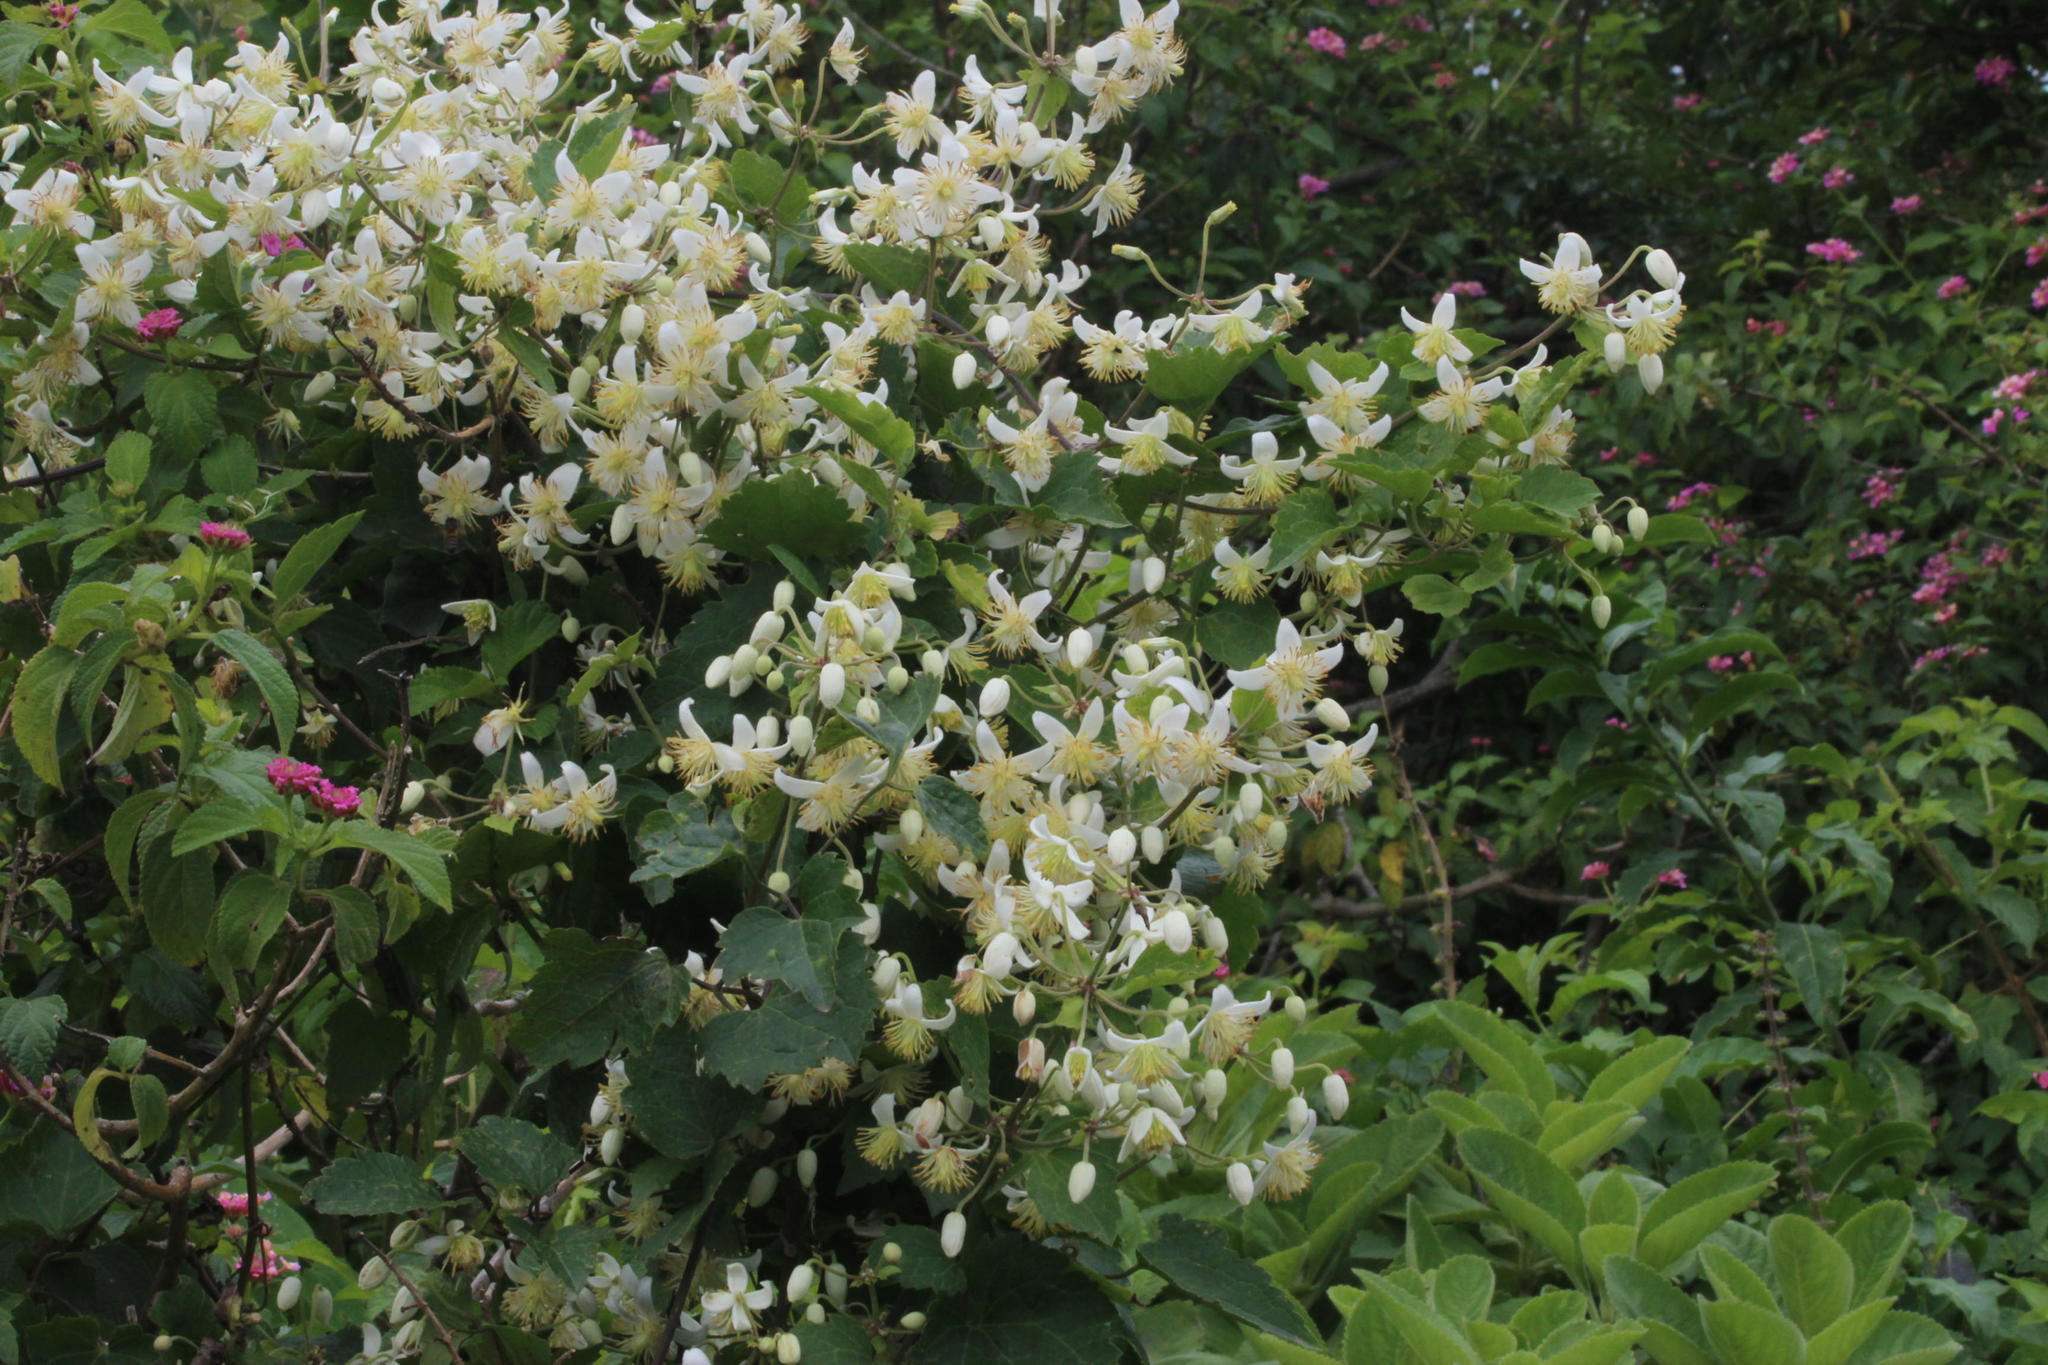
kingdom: Plantae
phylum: Tracheophyta
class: Magnoliopsida
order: Ranunculales
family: Ranunculaceae
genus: Clematis
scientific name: Clematis brachiata
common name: Traveler's-joy
